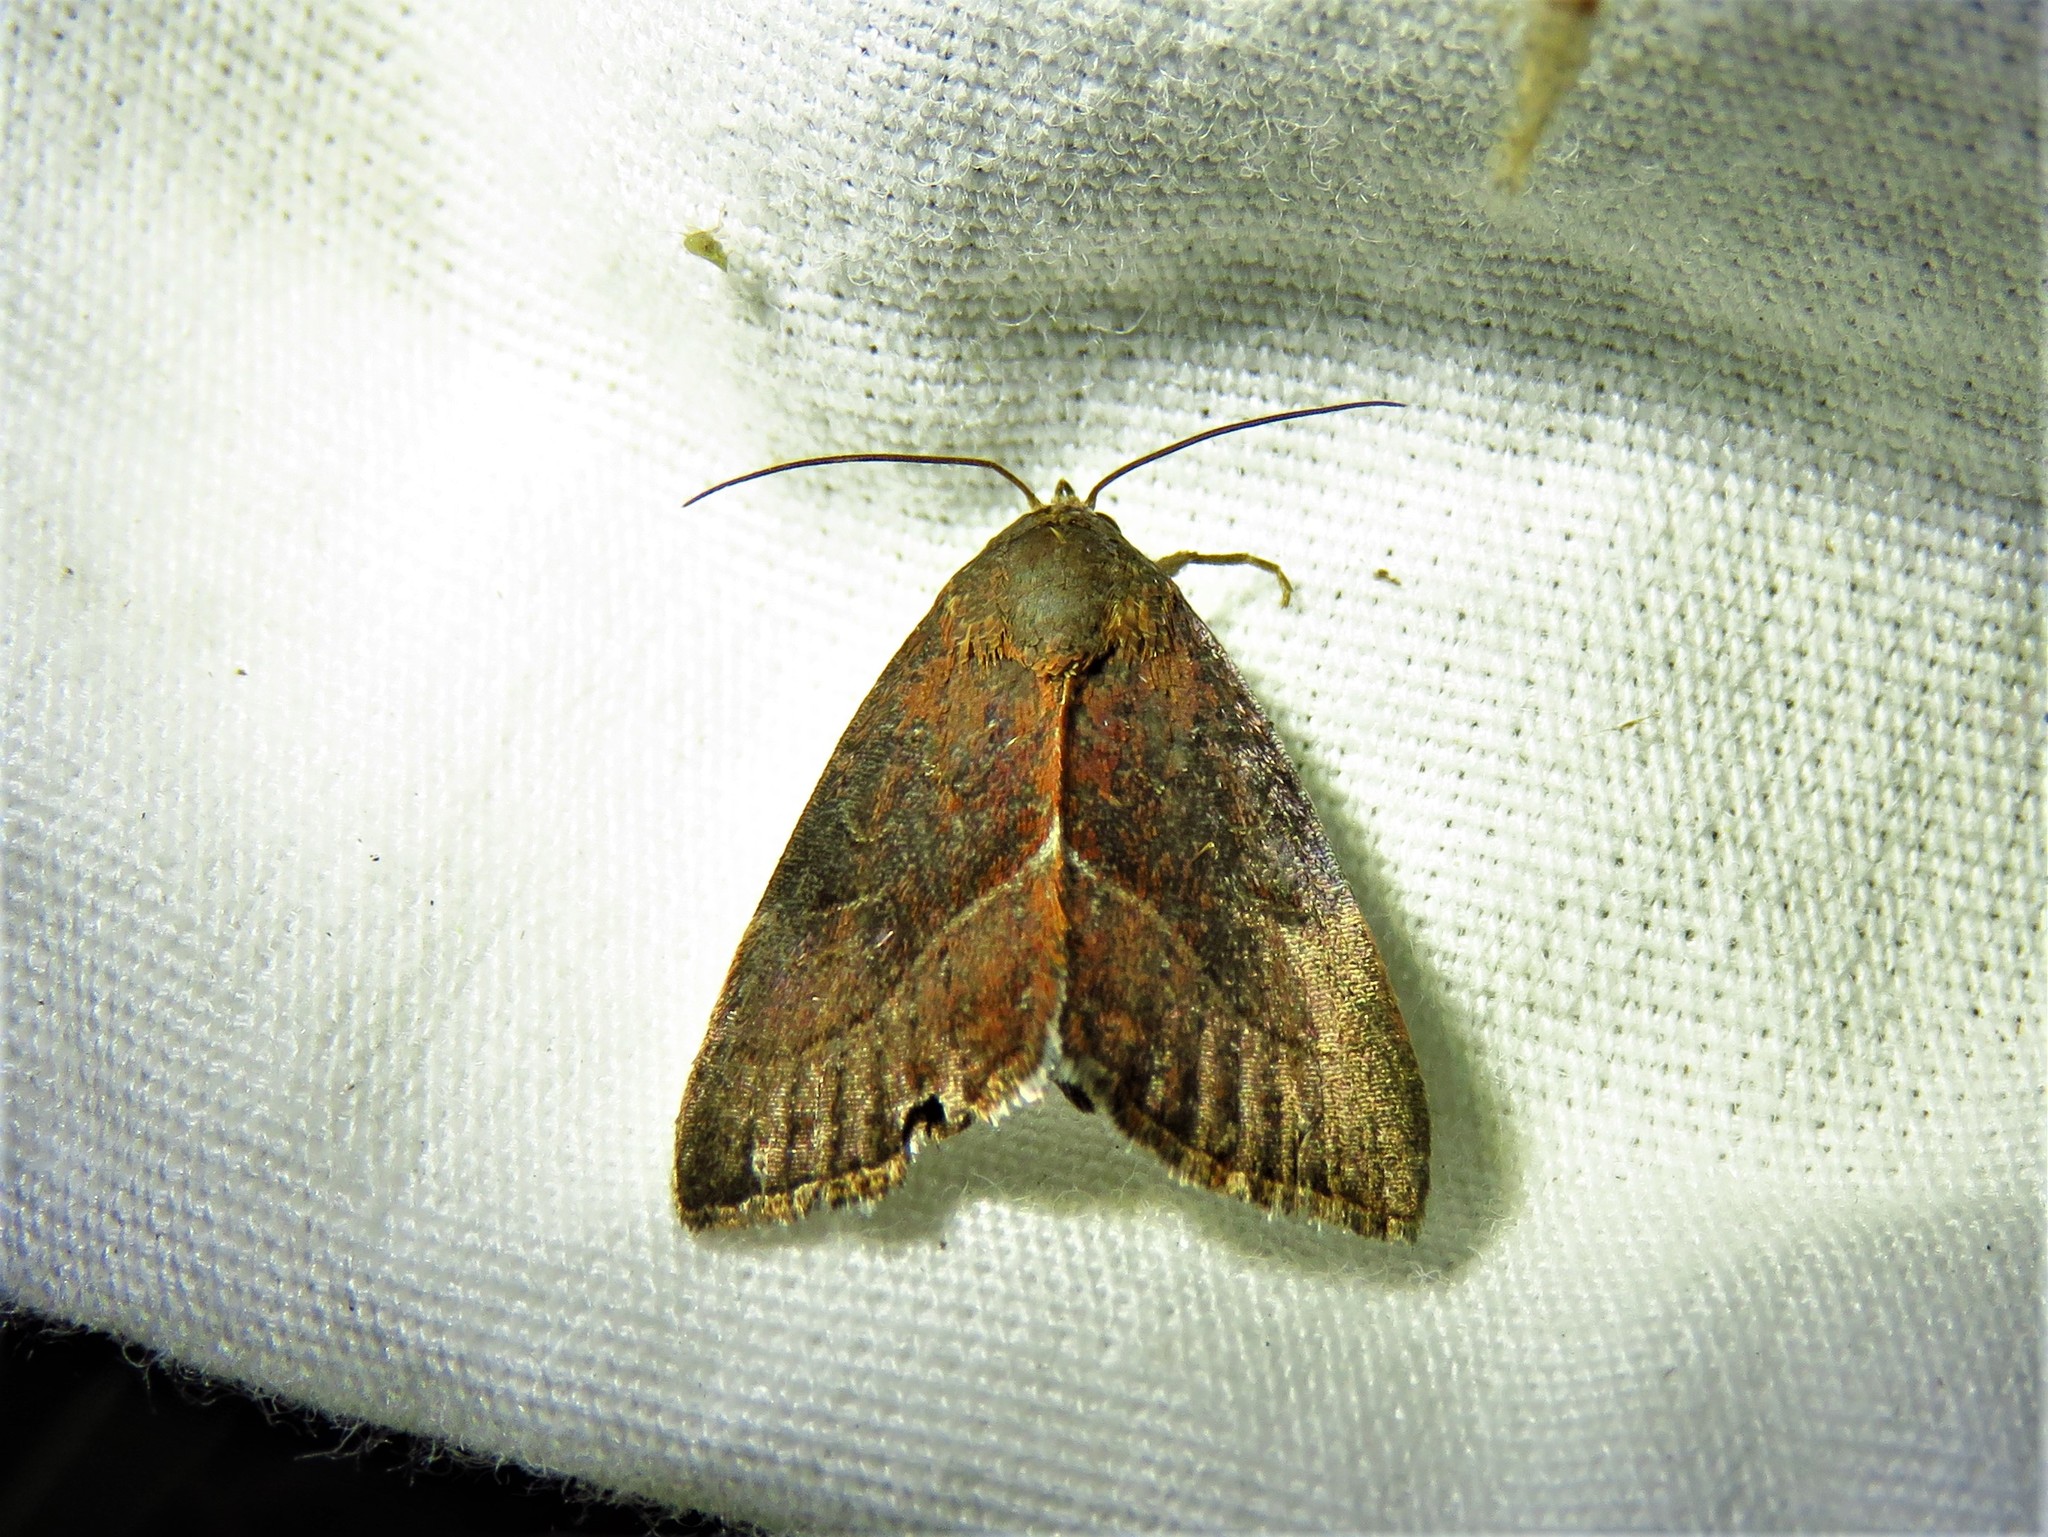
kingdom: Animalia
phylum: Arthropoda
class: Insecta
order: Lepidoptera
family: Noctuidae
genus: Galgula
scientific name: Galgula partita
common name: Wedgeling
